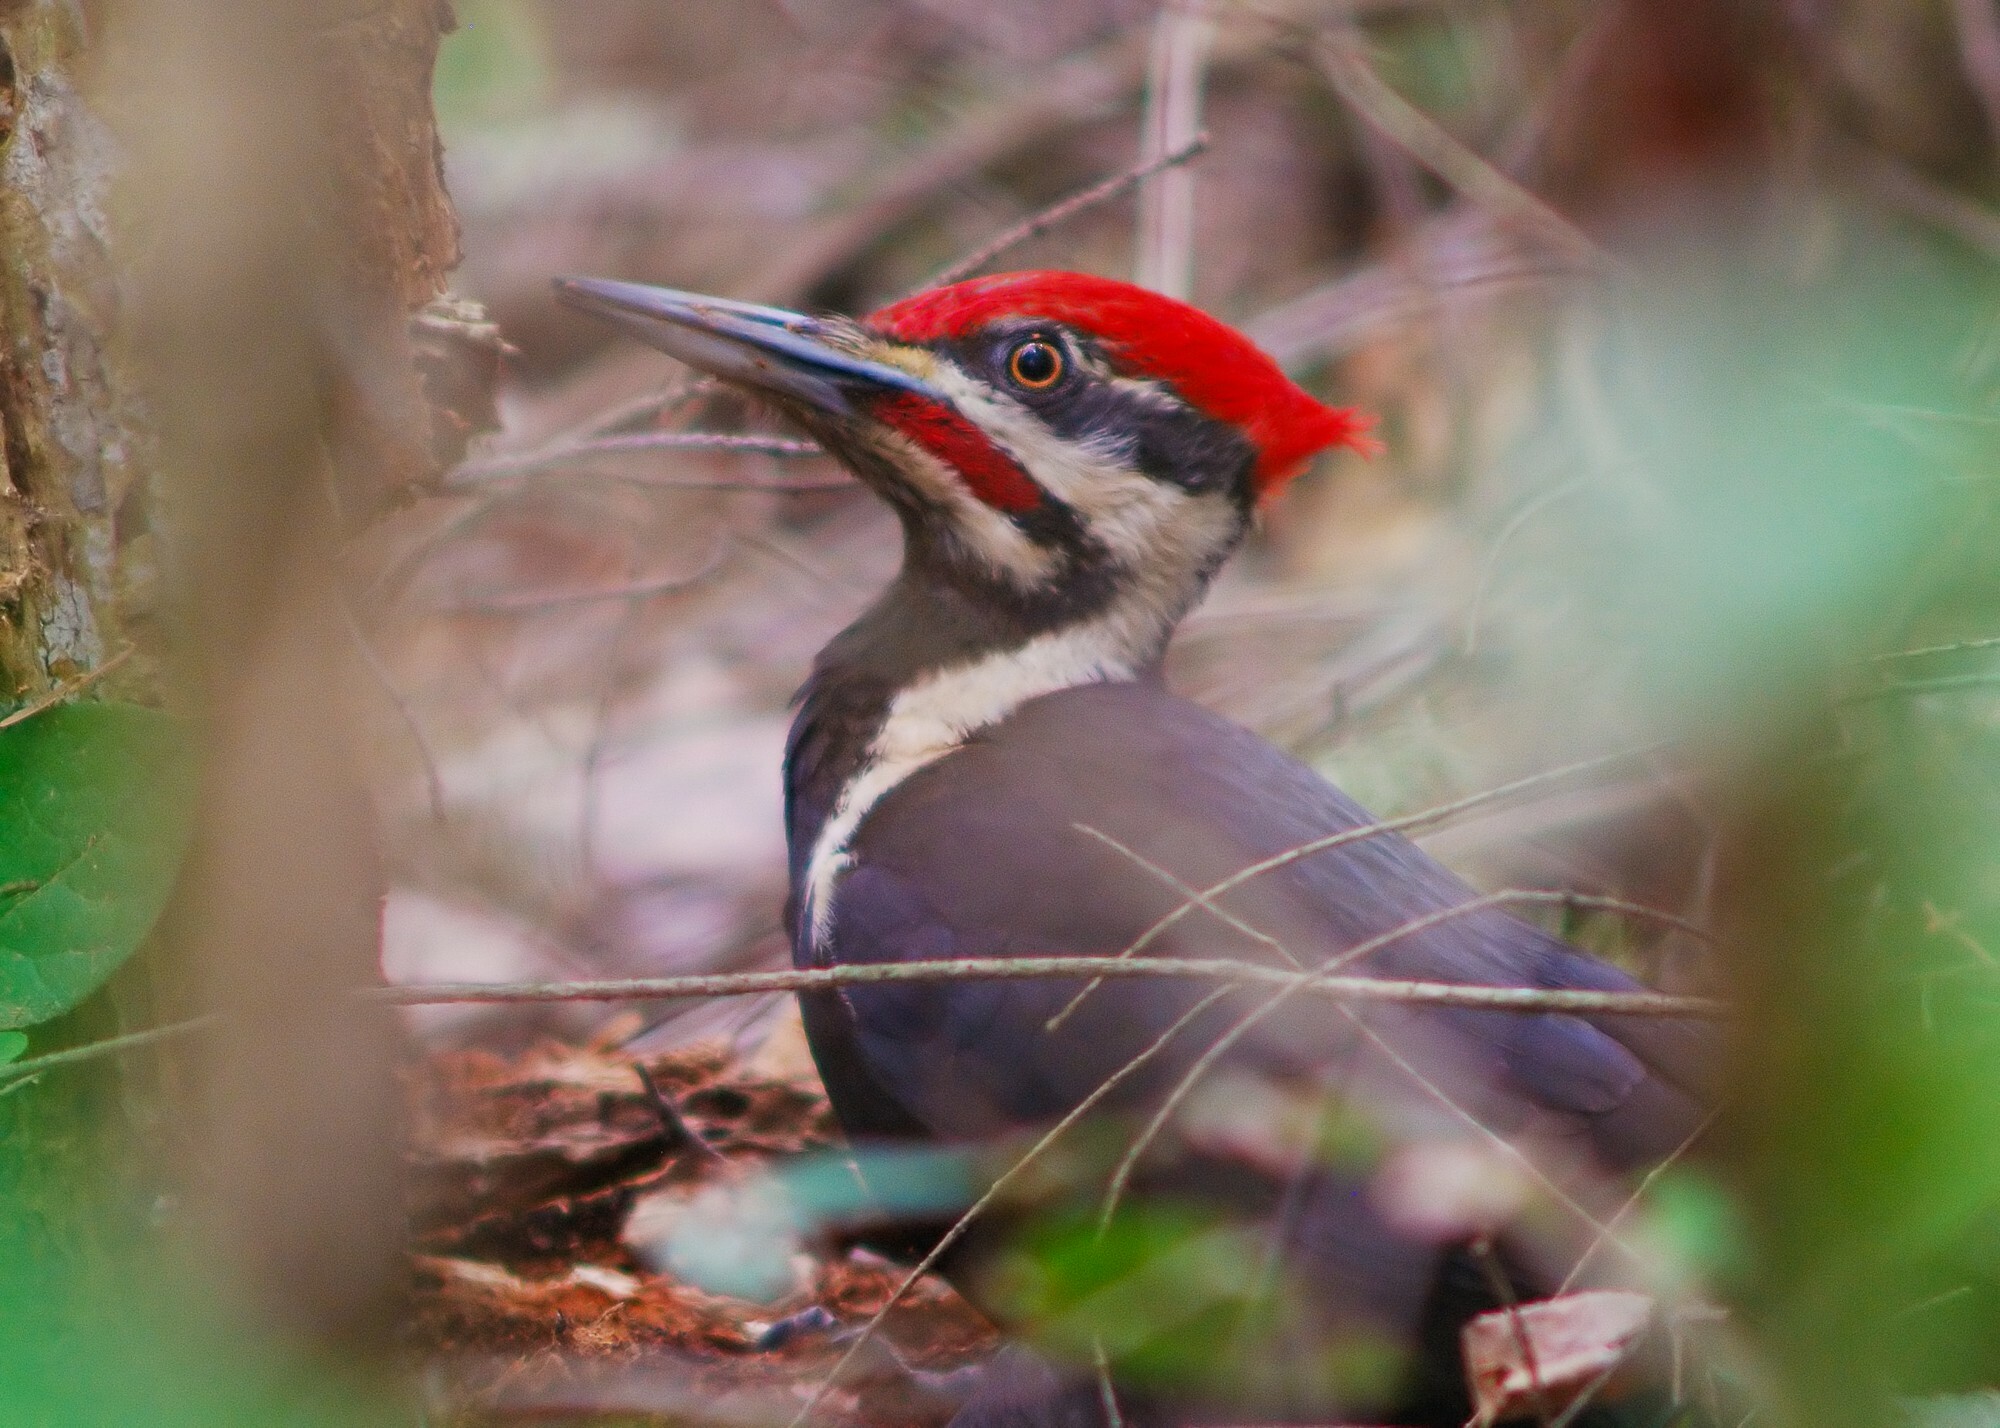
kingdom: Animalia
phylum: Chordata
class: Aves
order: Piciformes
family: Picidae
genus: Dryocopus
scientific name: Dryocopus pileatus
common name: Pileated woodpecker
